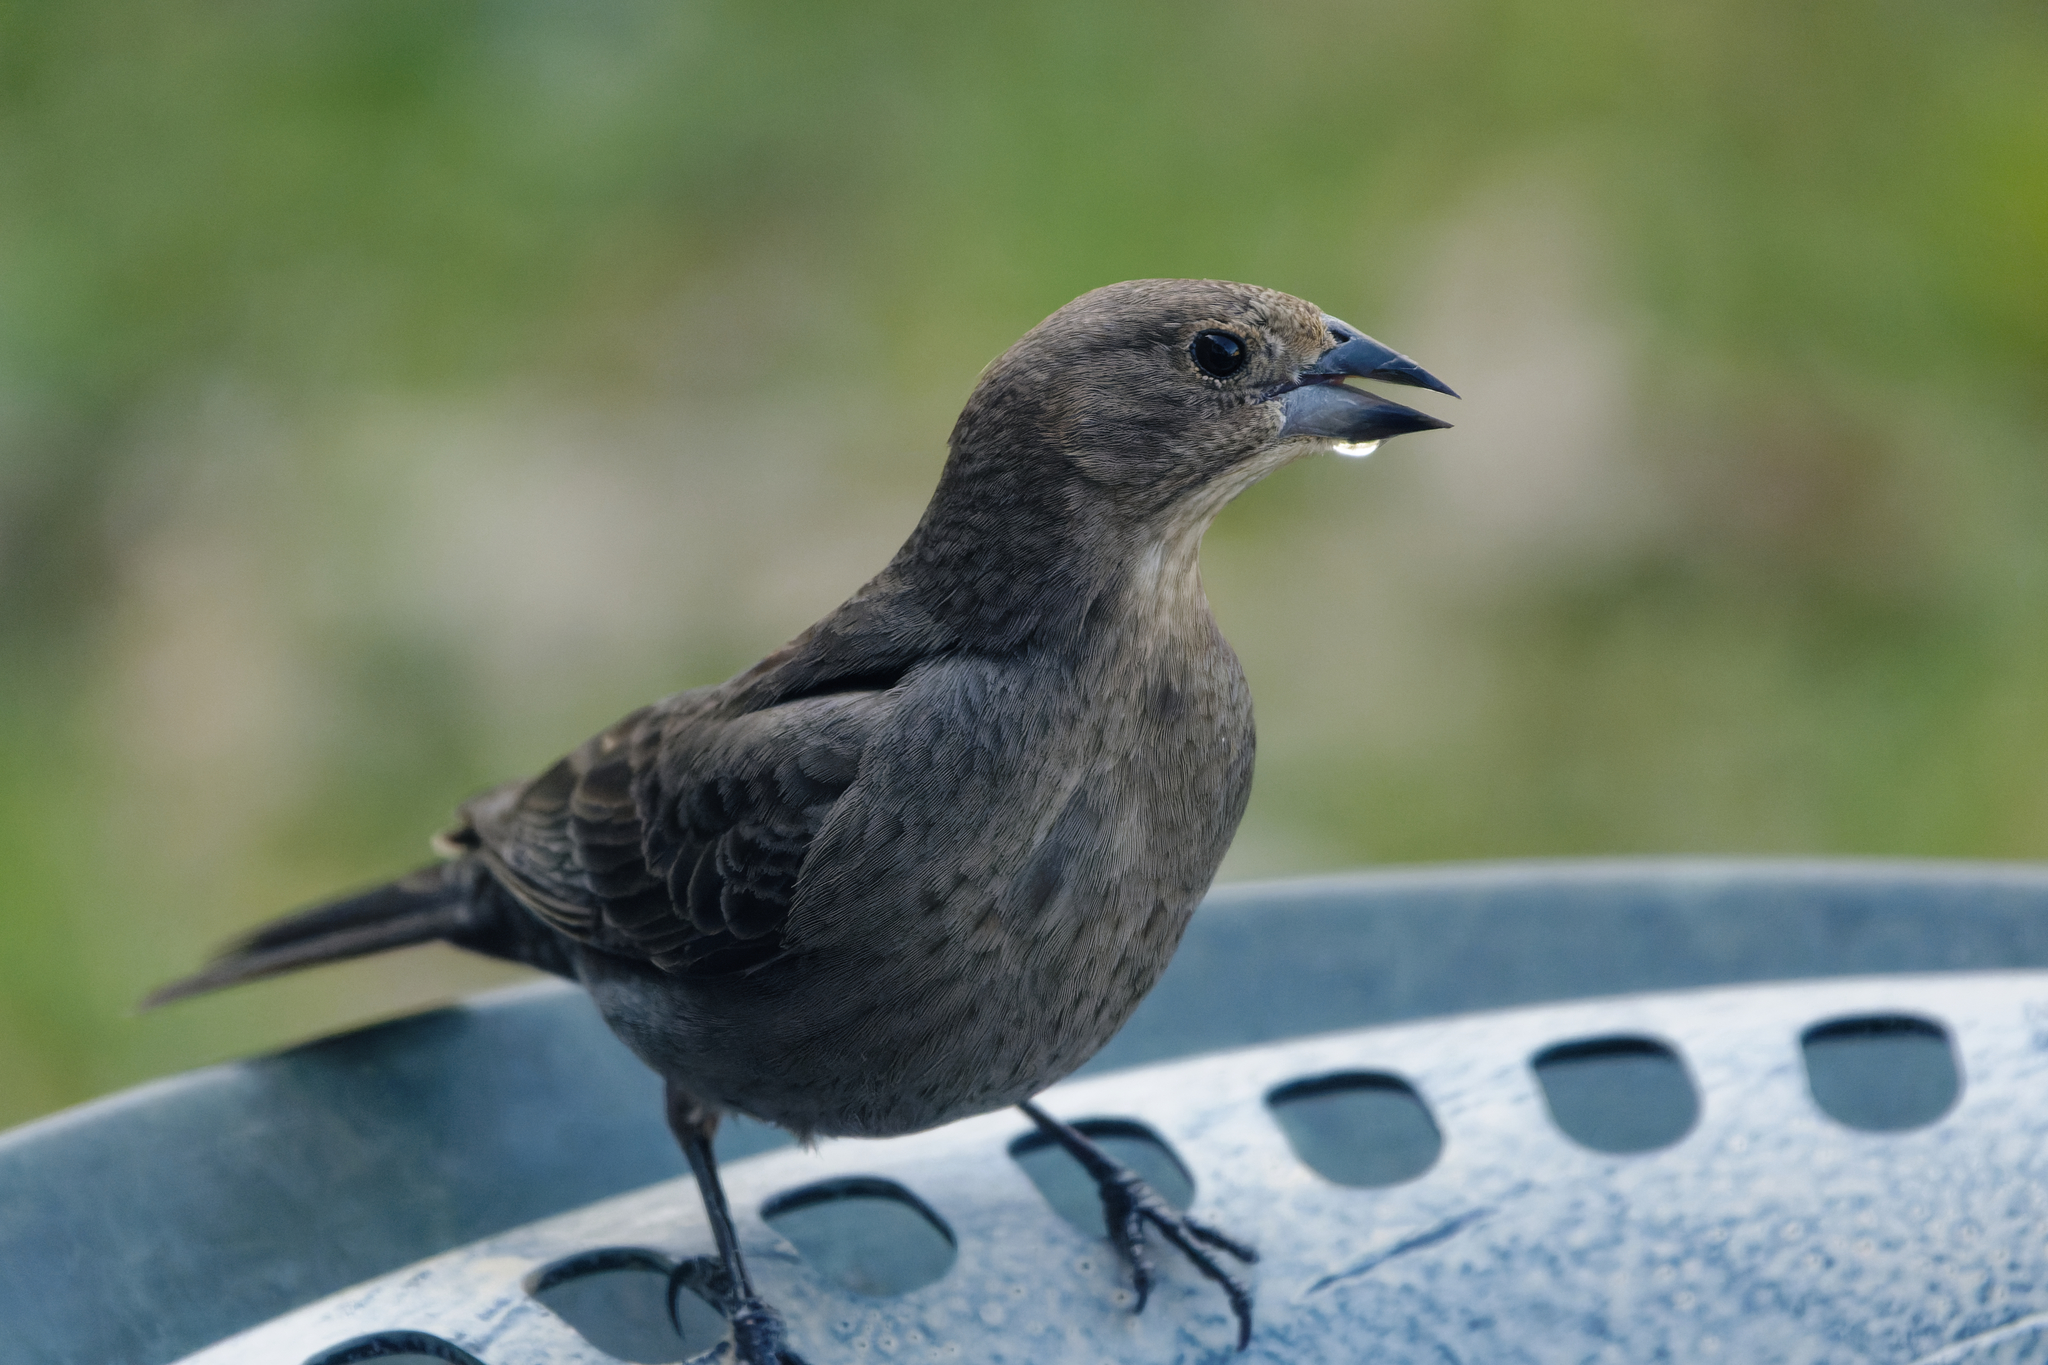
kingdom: Animalia
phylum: Chordata
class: Aves
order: Passeriformes
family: Icteridae
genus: Molothrus
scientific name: Molothrus ater
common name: Brown-headed cowbird
